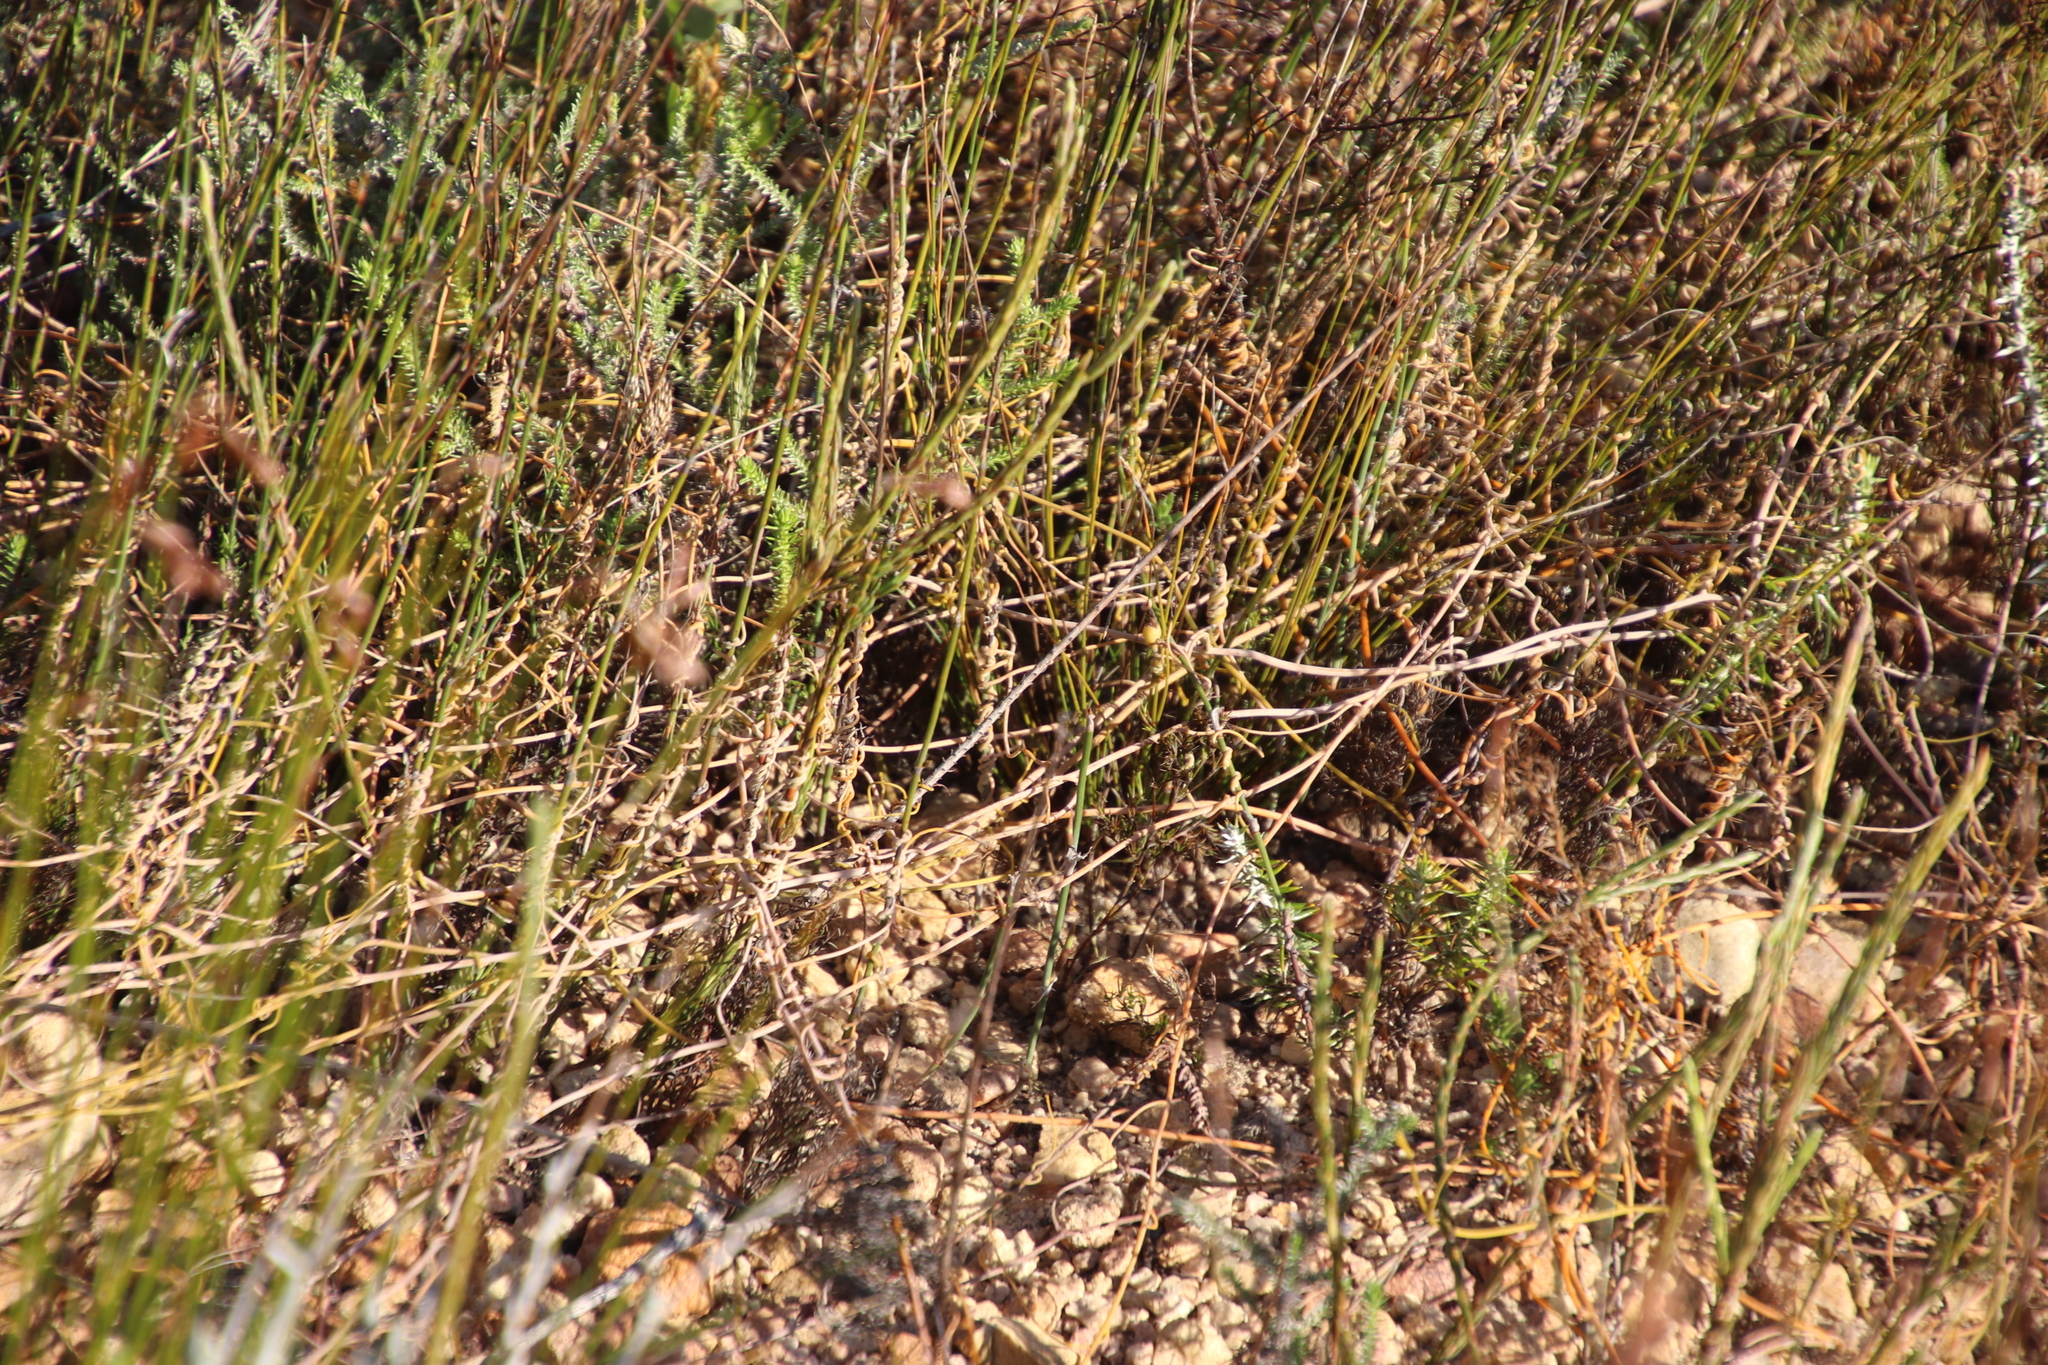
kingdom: Plantae
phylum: Tracheophyta
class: Magnoliopsida
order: Laurales
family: Lauraceae
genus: Cassytha
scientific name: Cassytha ciliolata
